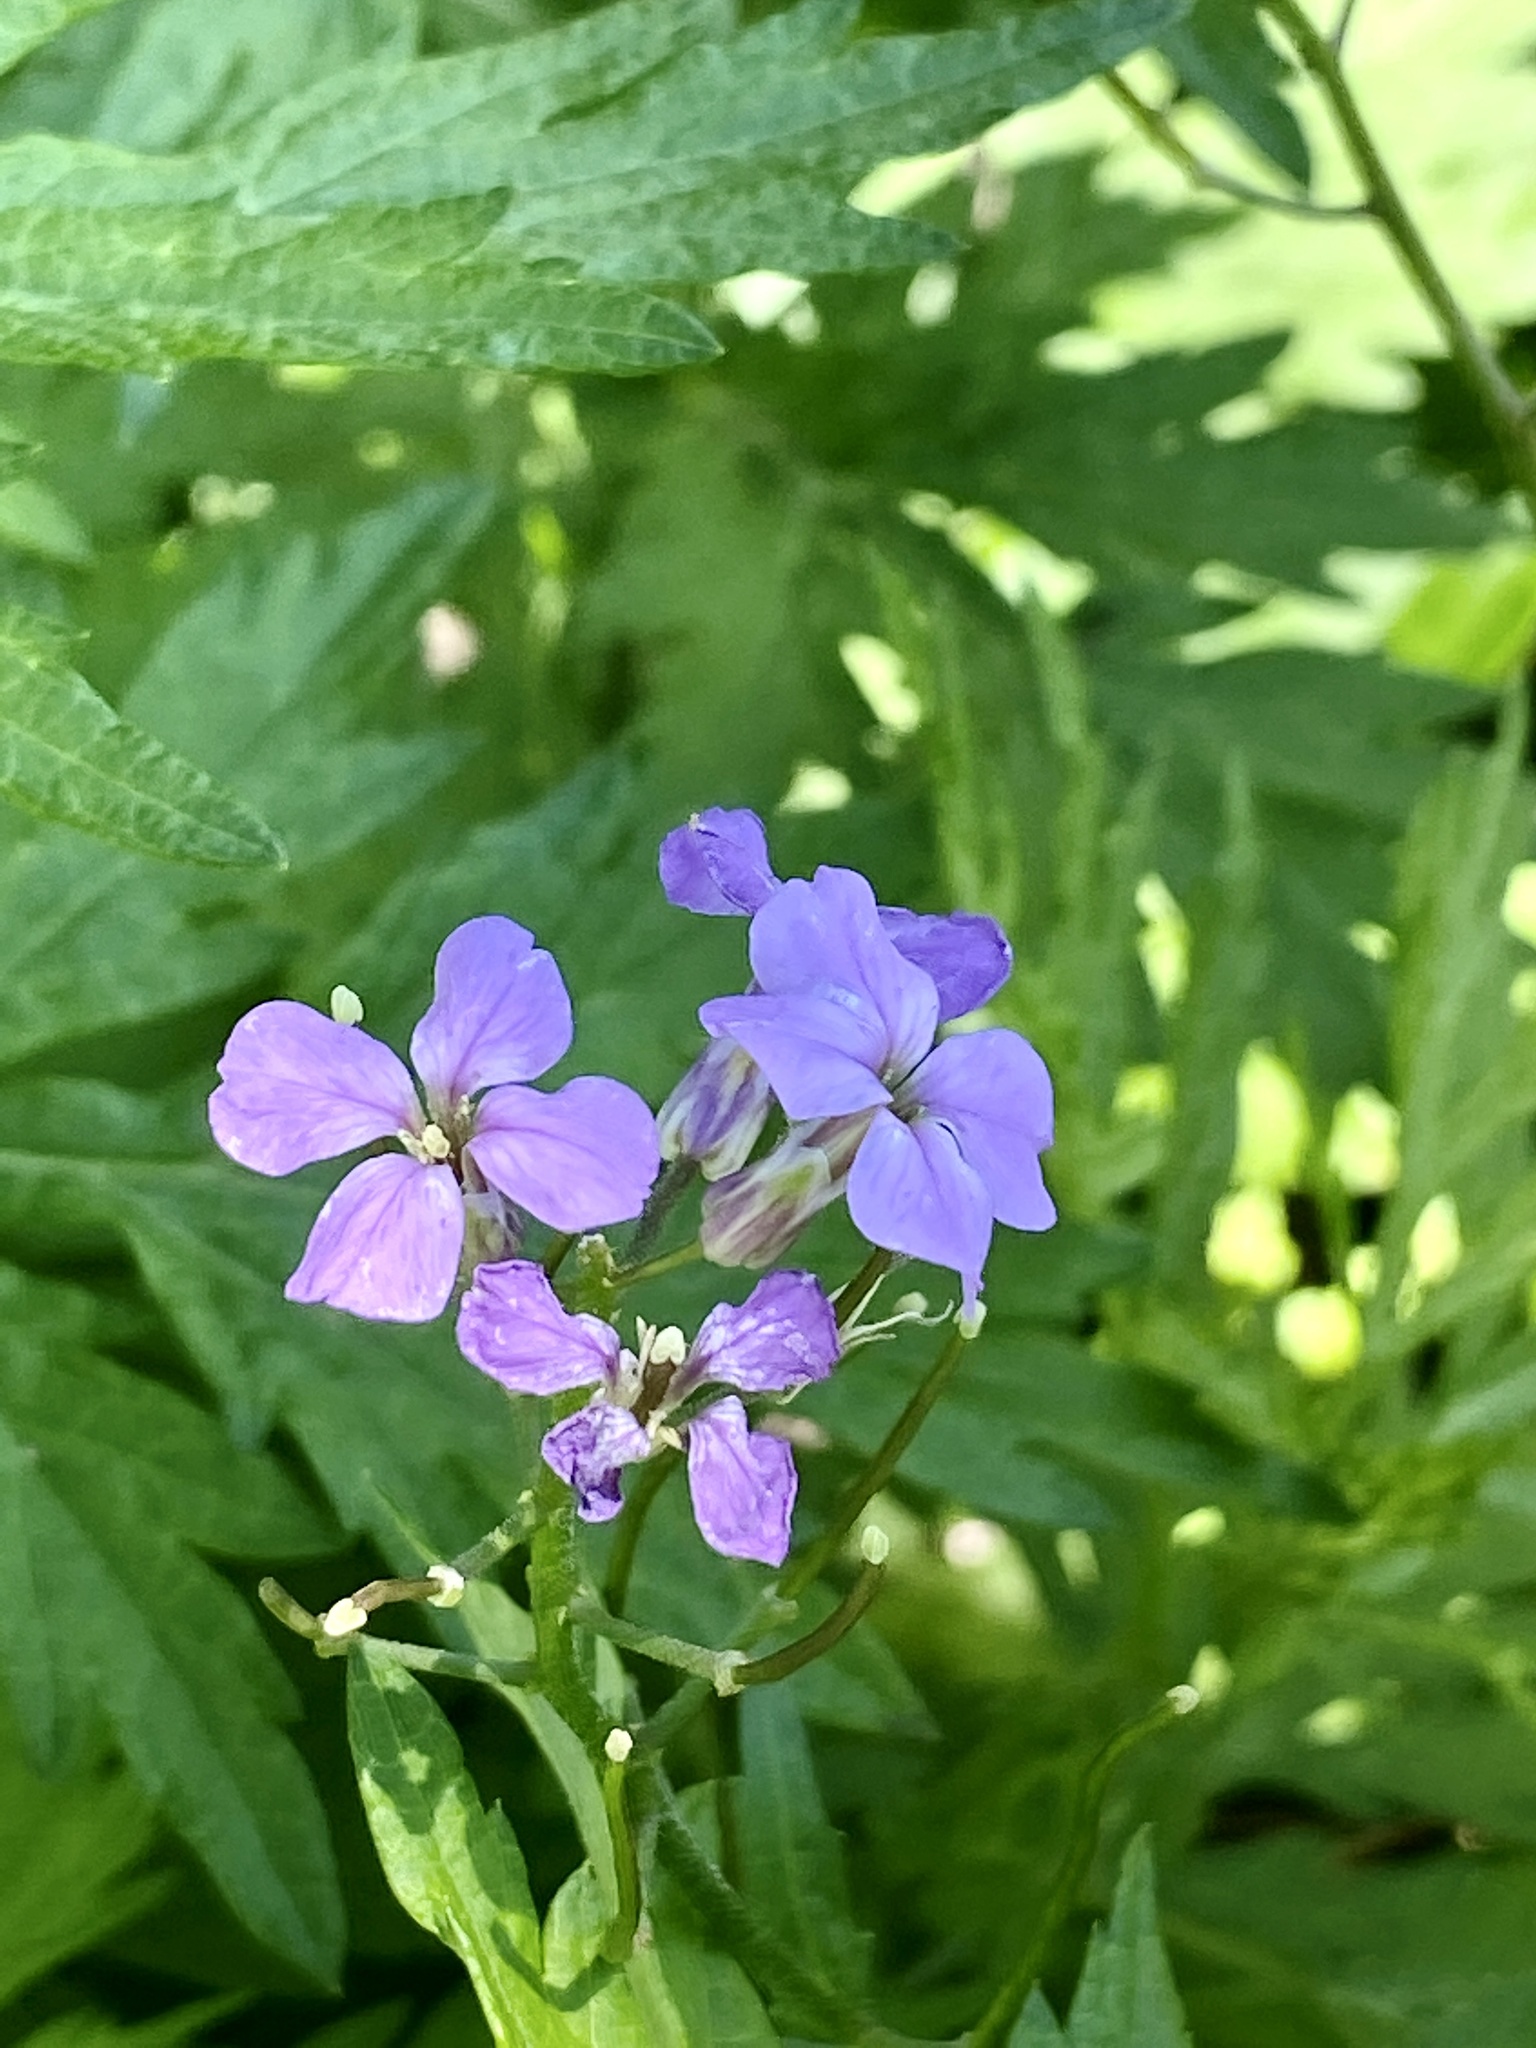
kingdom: Plantae
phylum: Tracheophyta
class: Magnoliopsida
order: Brassicales
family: Brassicaceae
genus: Hesperis
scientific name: Hesperis matronalis
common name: Dame's-violet
